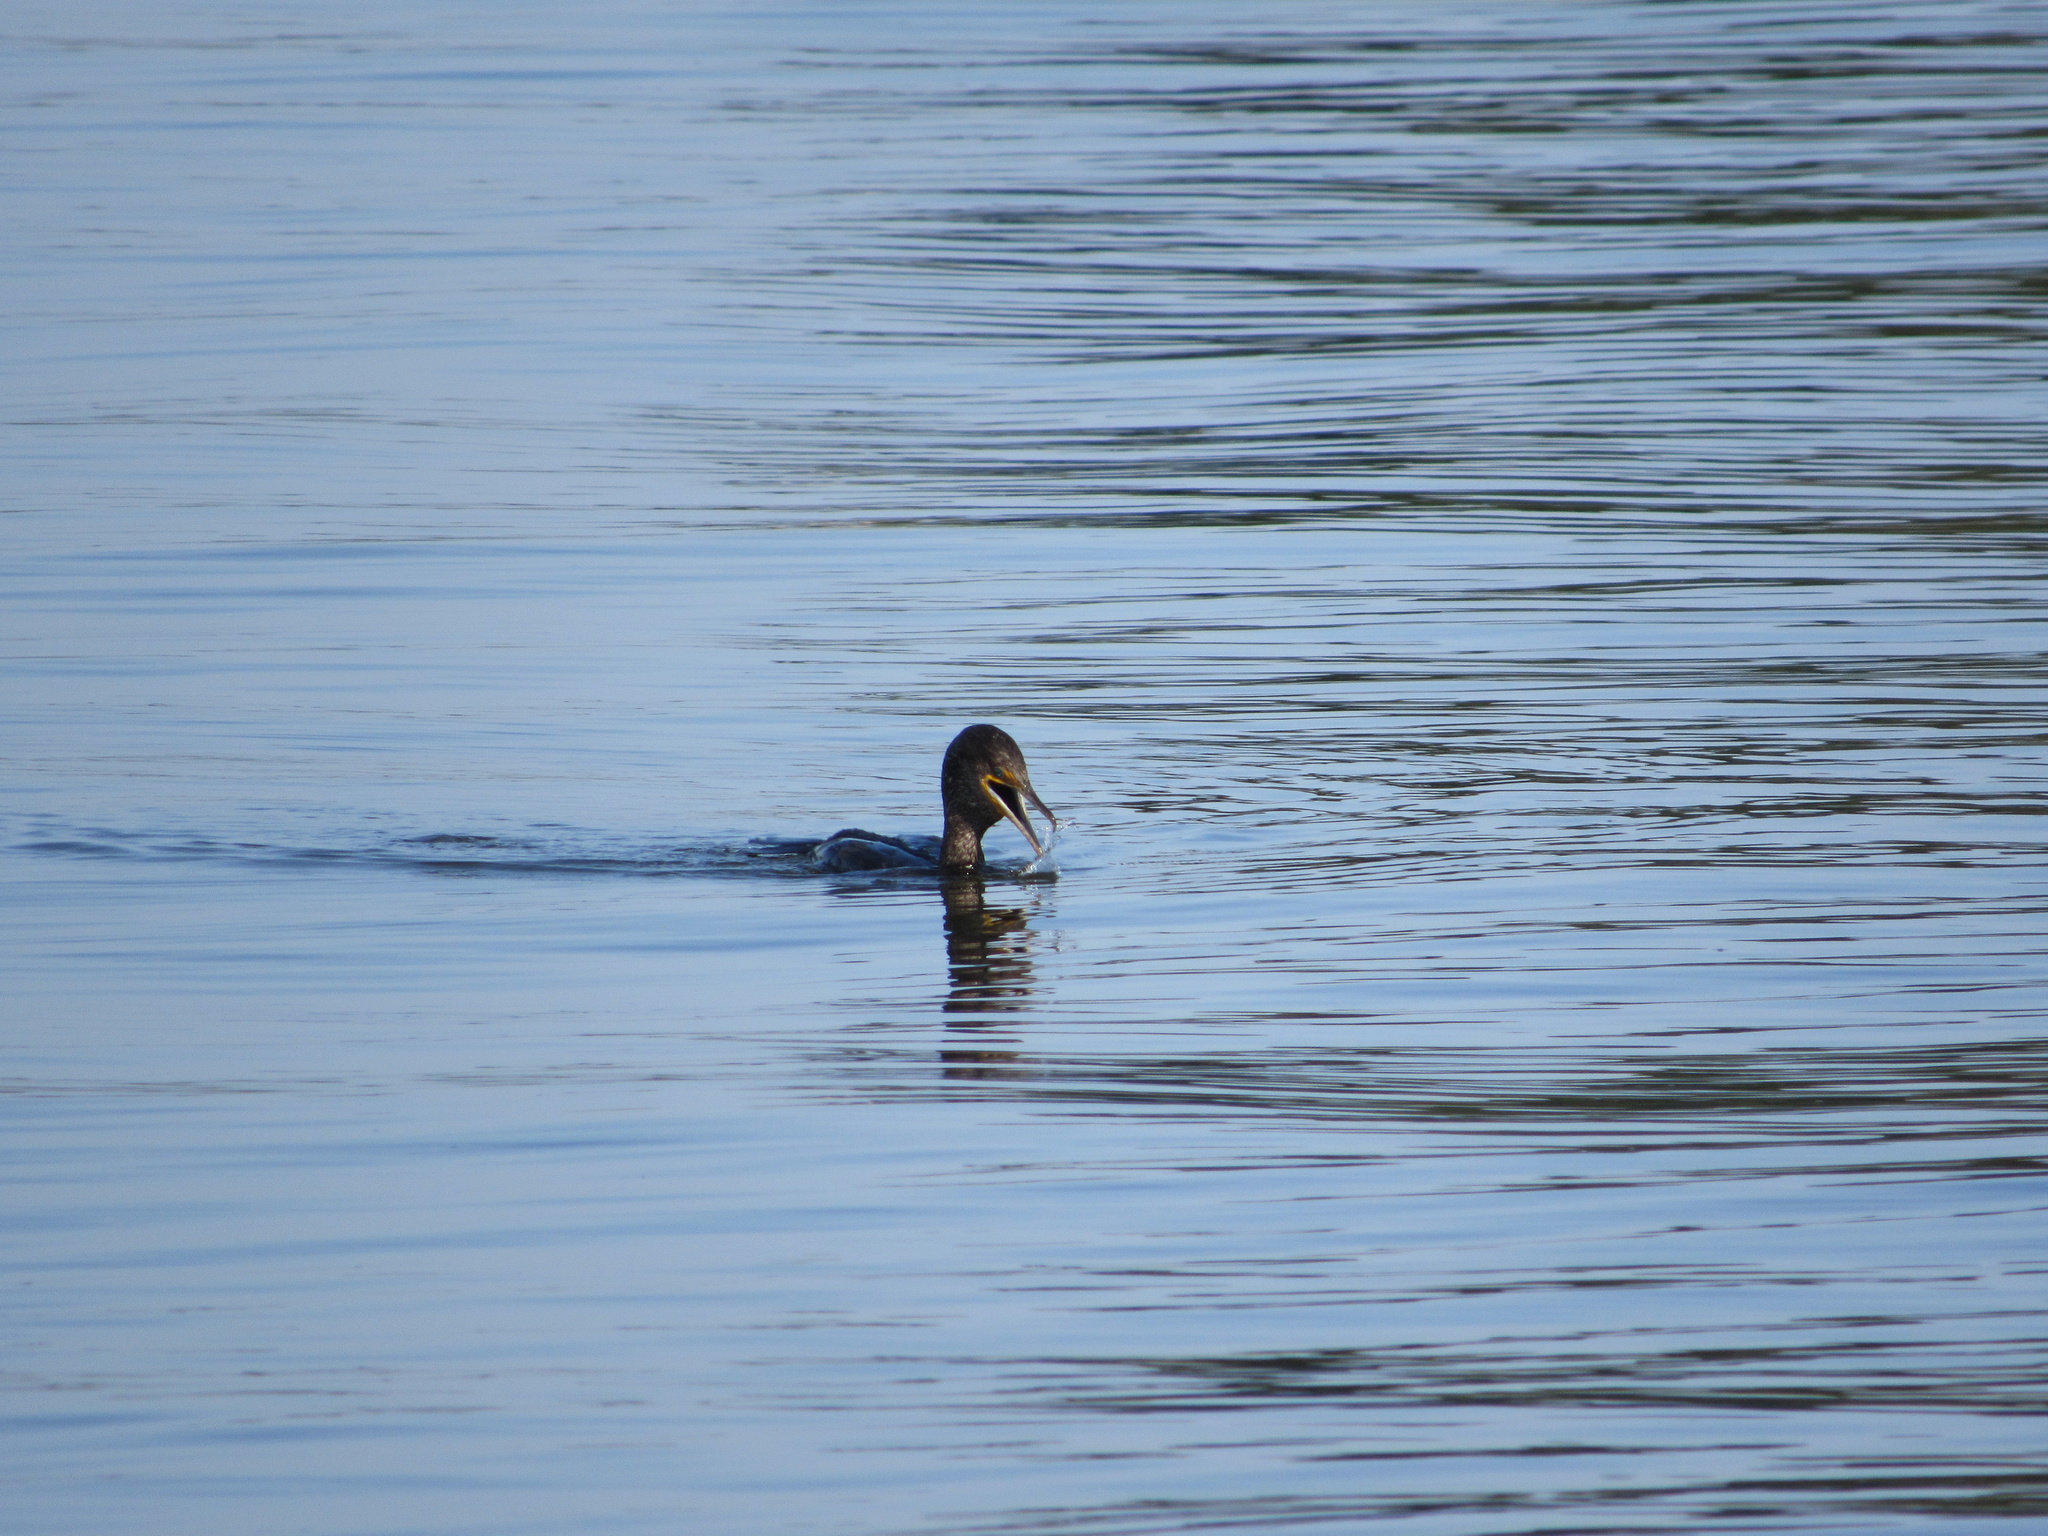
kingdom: Animalia
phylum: Chordata
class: Aves
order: Suliformes
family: Phalacrocoracidae
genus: Phalacrocorax
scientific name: Phalacrocorax auritus
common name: Double-crested cormorant
